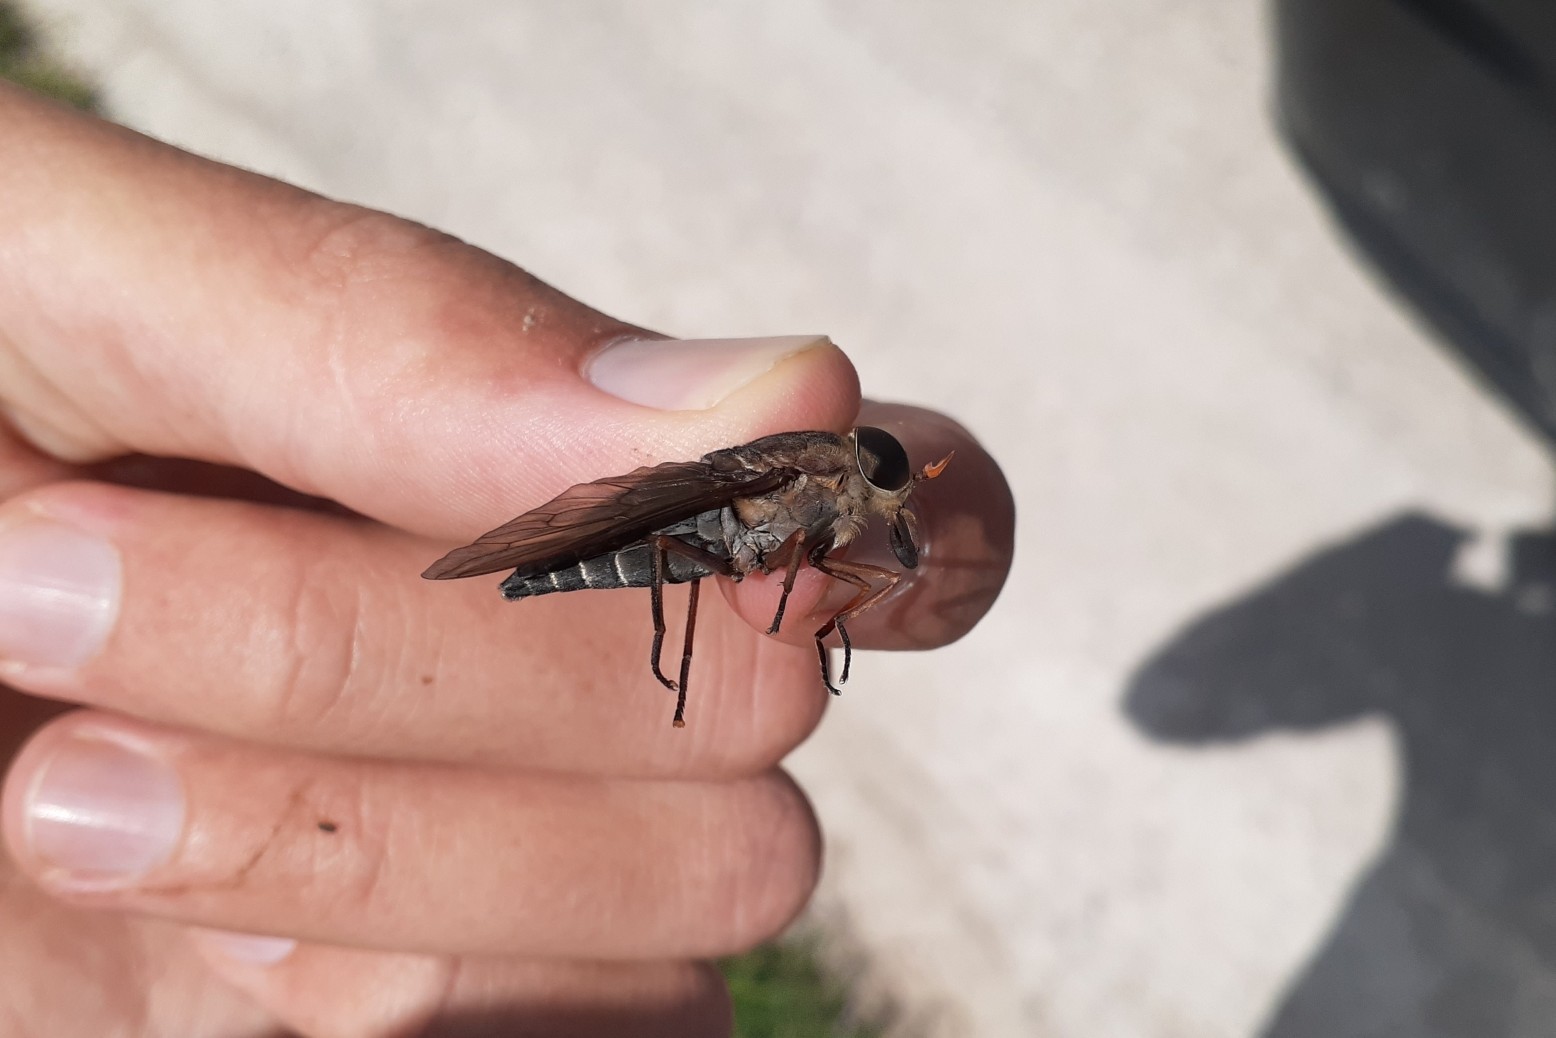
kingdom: Animalia
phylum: Arthropoda
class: Insecta
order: Diptera
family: Tabanidae
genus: Tabanus
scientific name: Tabanus calens
